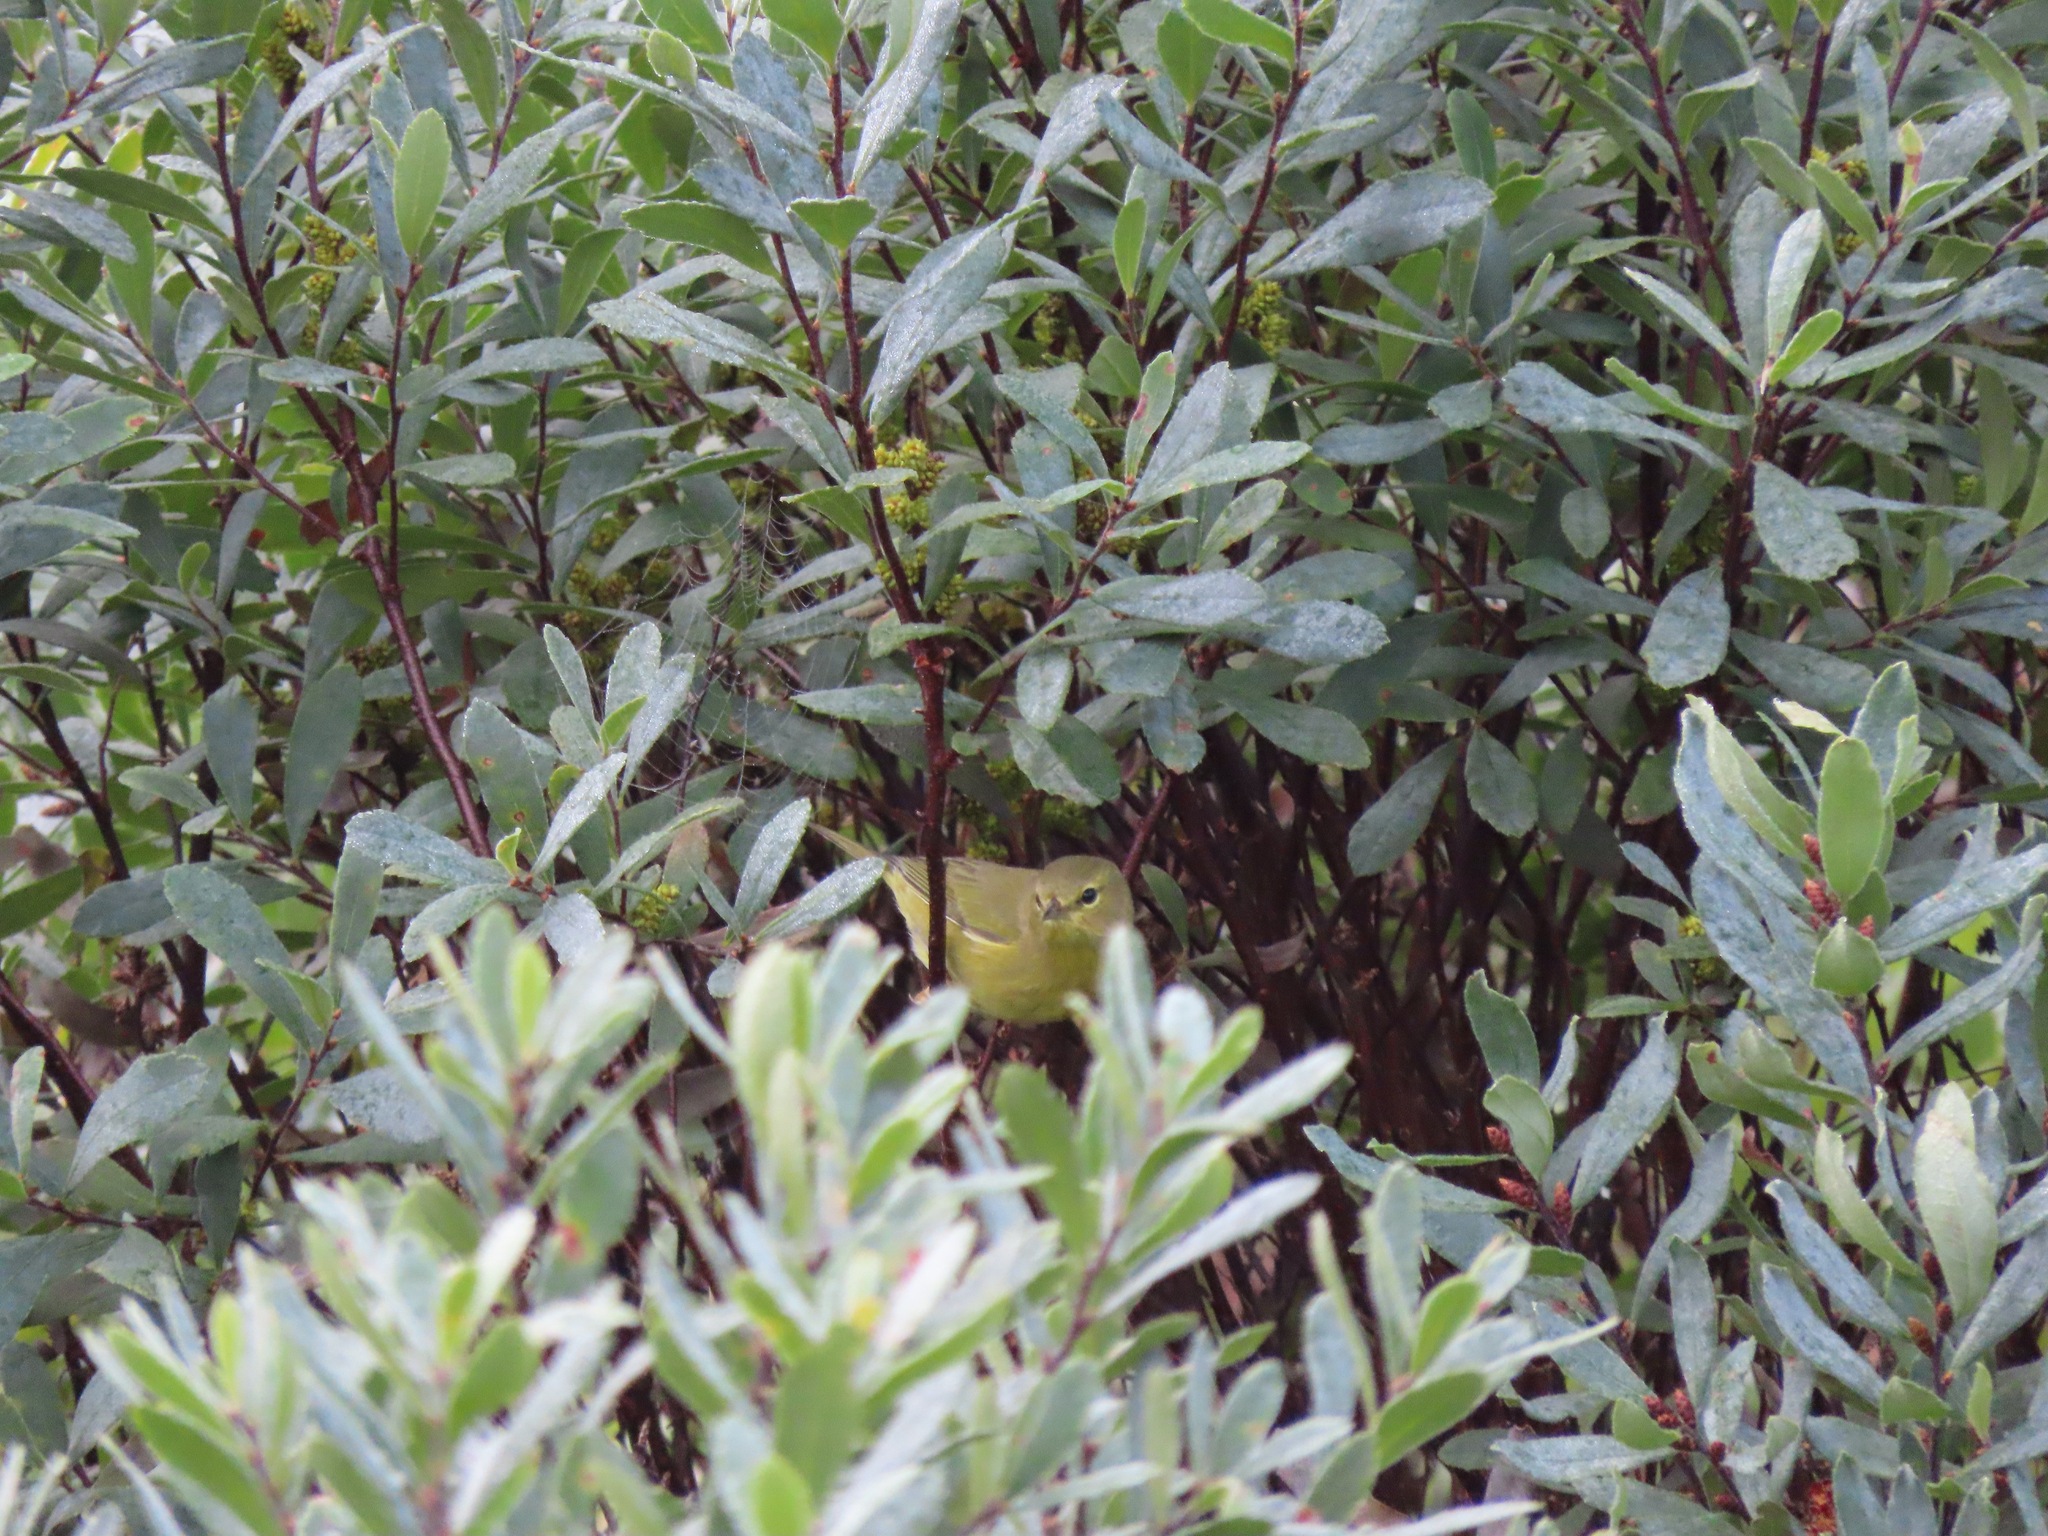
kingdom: Animalia
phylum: Chordata
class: Aves
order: Passeriformes
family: Parulidae
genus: Leiothlypis
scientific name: Leiothlypis celata
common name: Orange-crowned warbler
